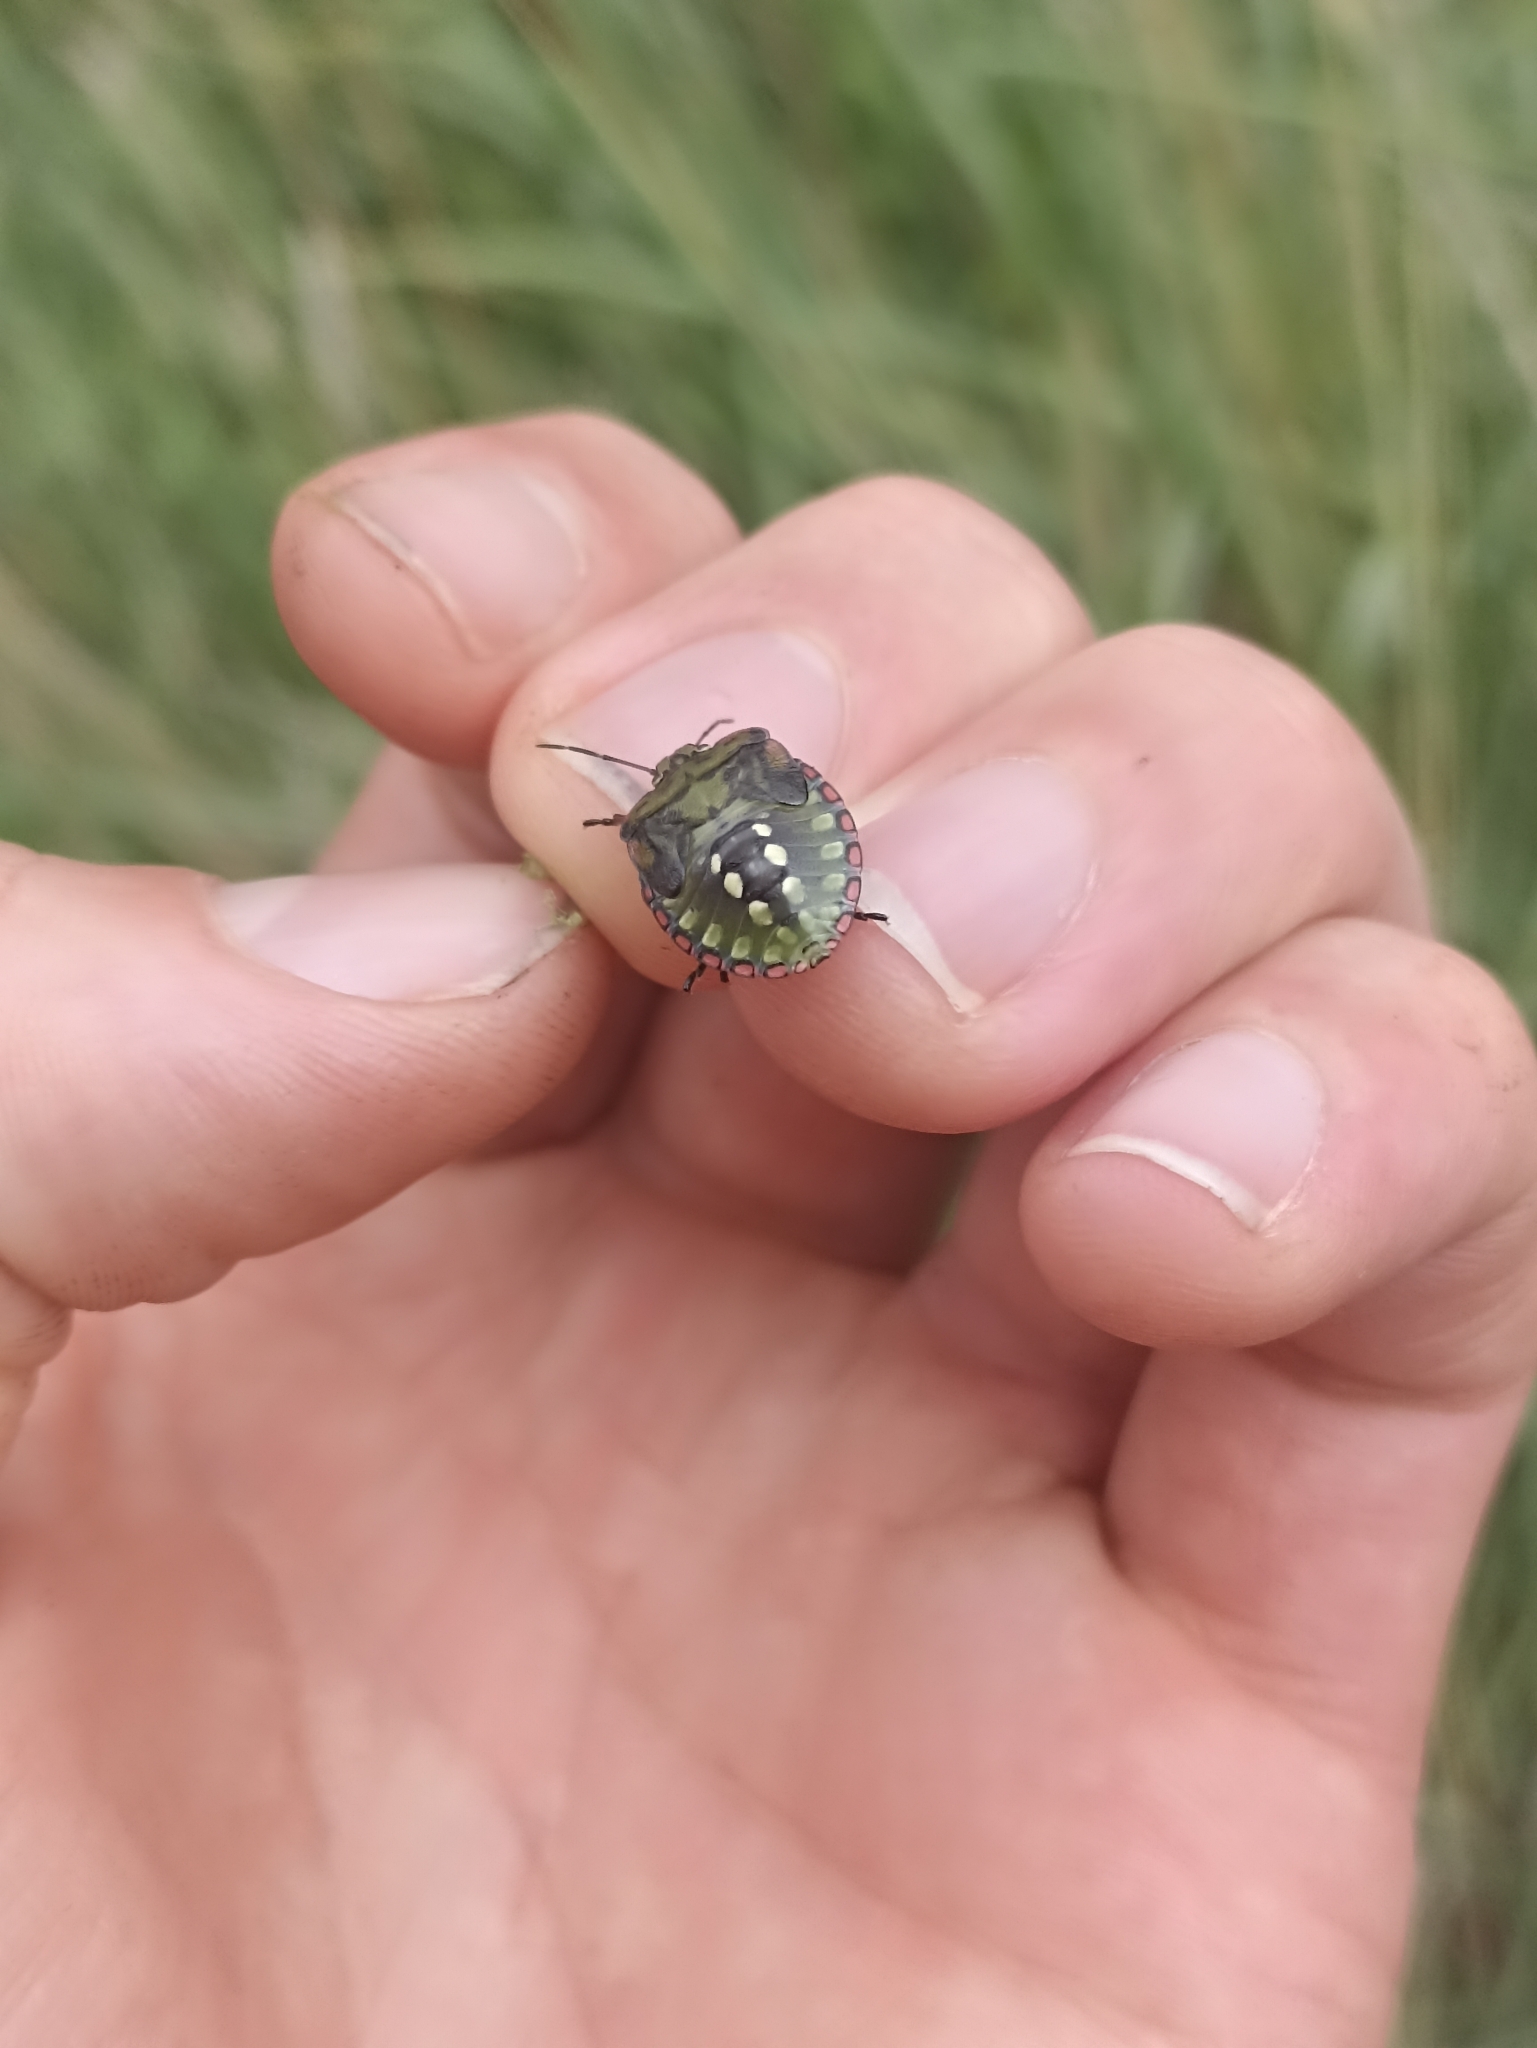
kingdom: Animalia
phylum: Arthropoda
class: Insecta
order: Hemiptera
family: Pentatomidae
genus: Nezara
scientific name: Nezara viridula
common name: Southern green stink bug
